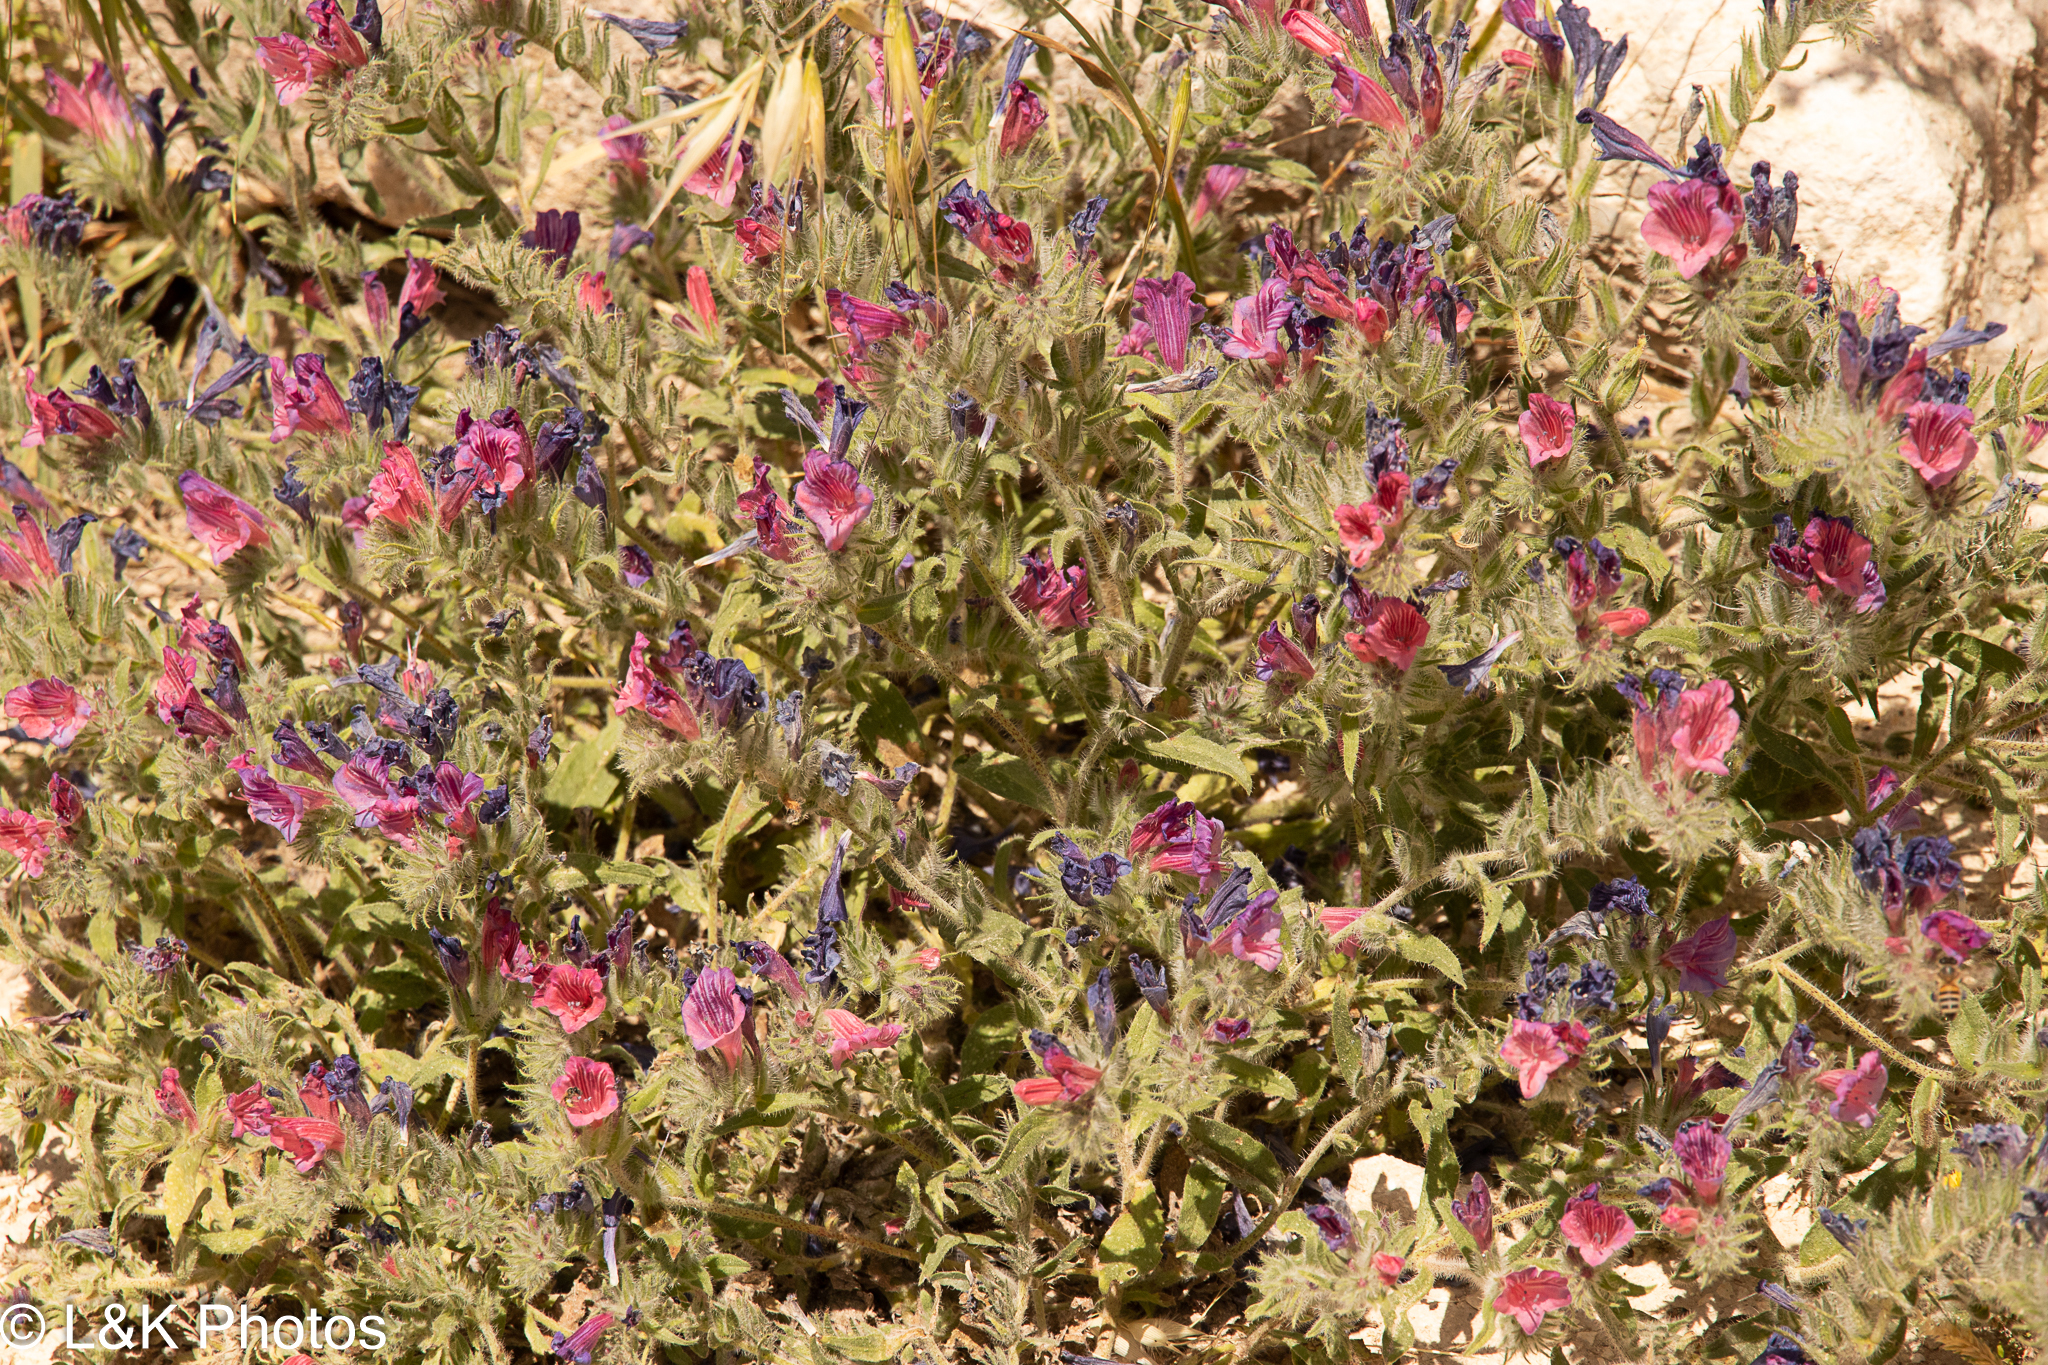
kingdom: Plantae
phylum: Tracheophyta
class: Magnoliopsida
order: Boraginales
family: Boraginaceae
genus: Echium
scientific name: Echium judaeum
